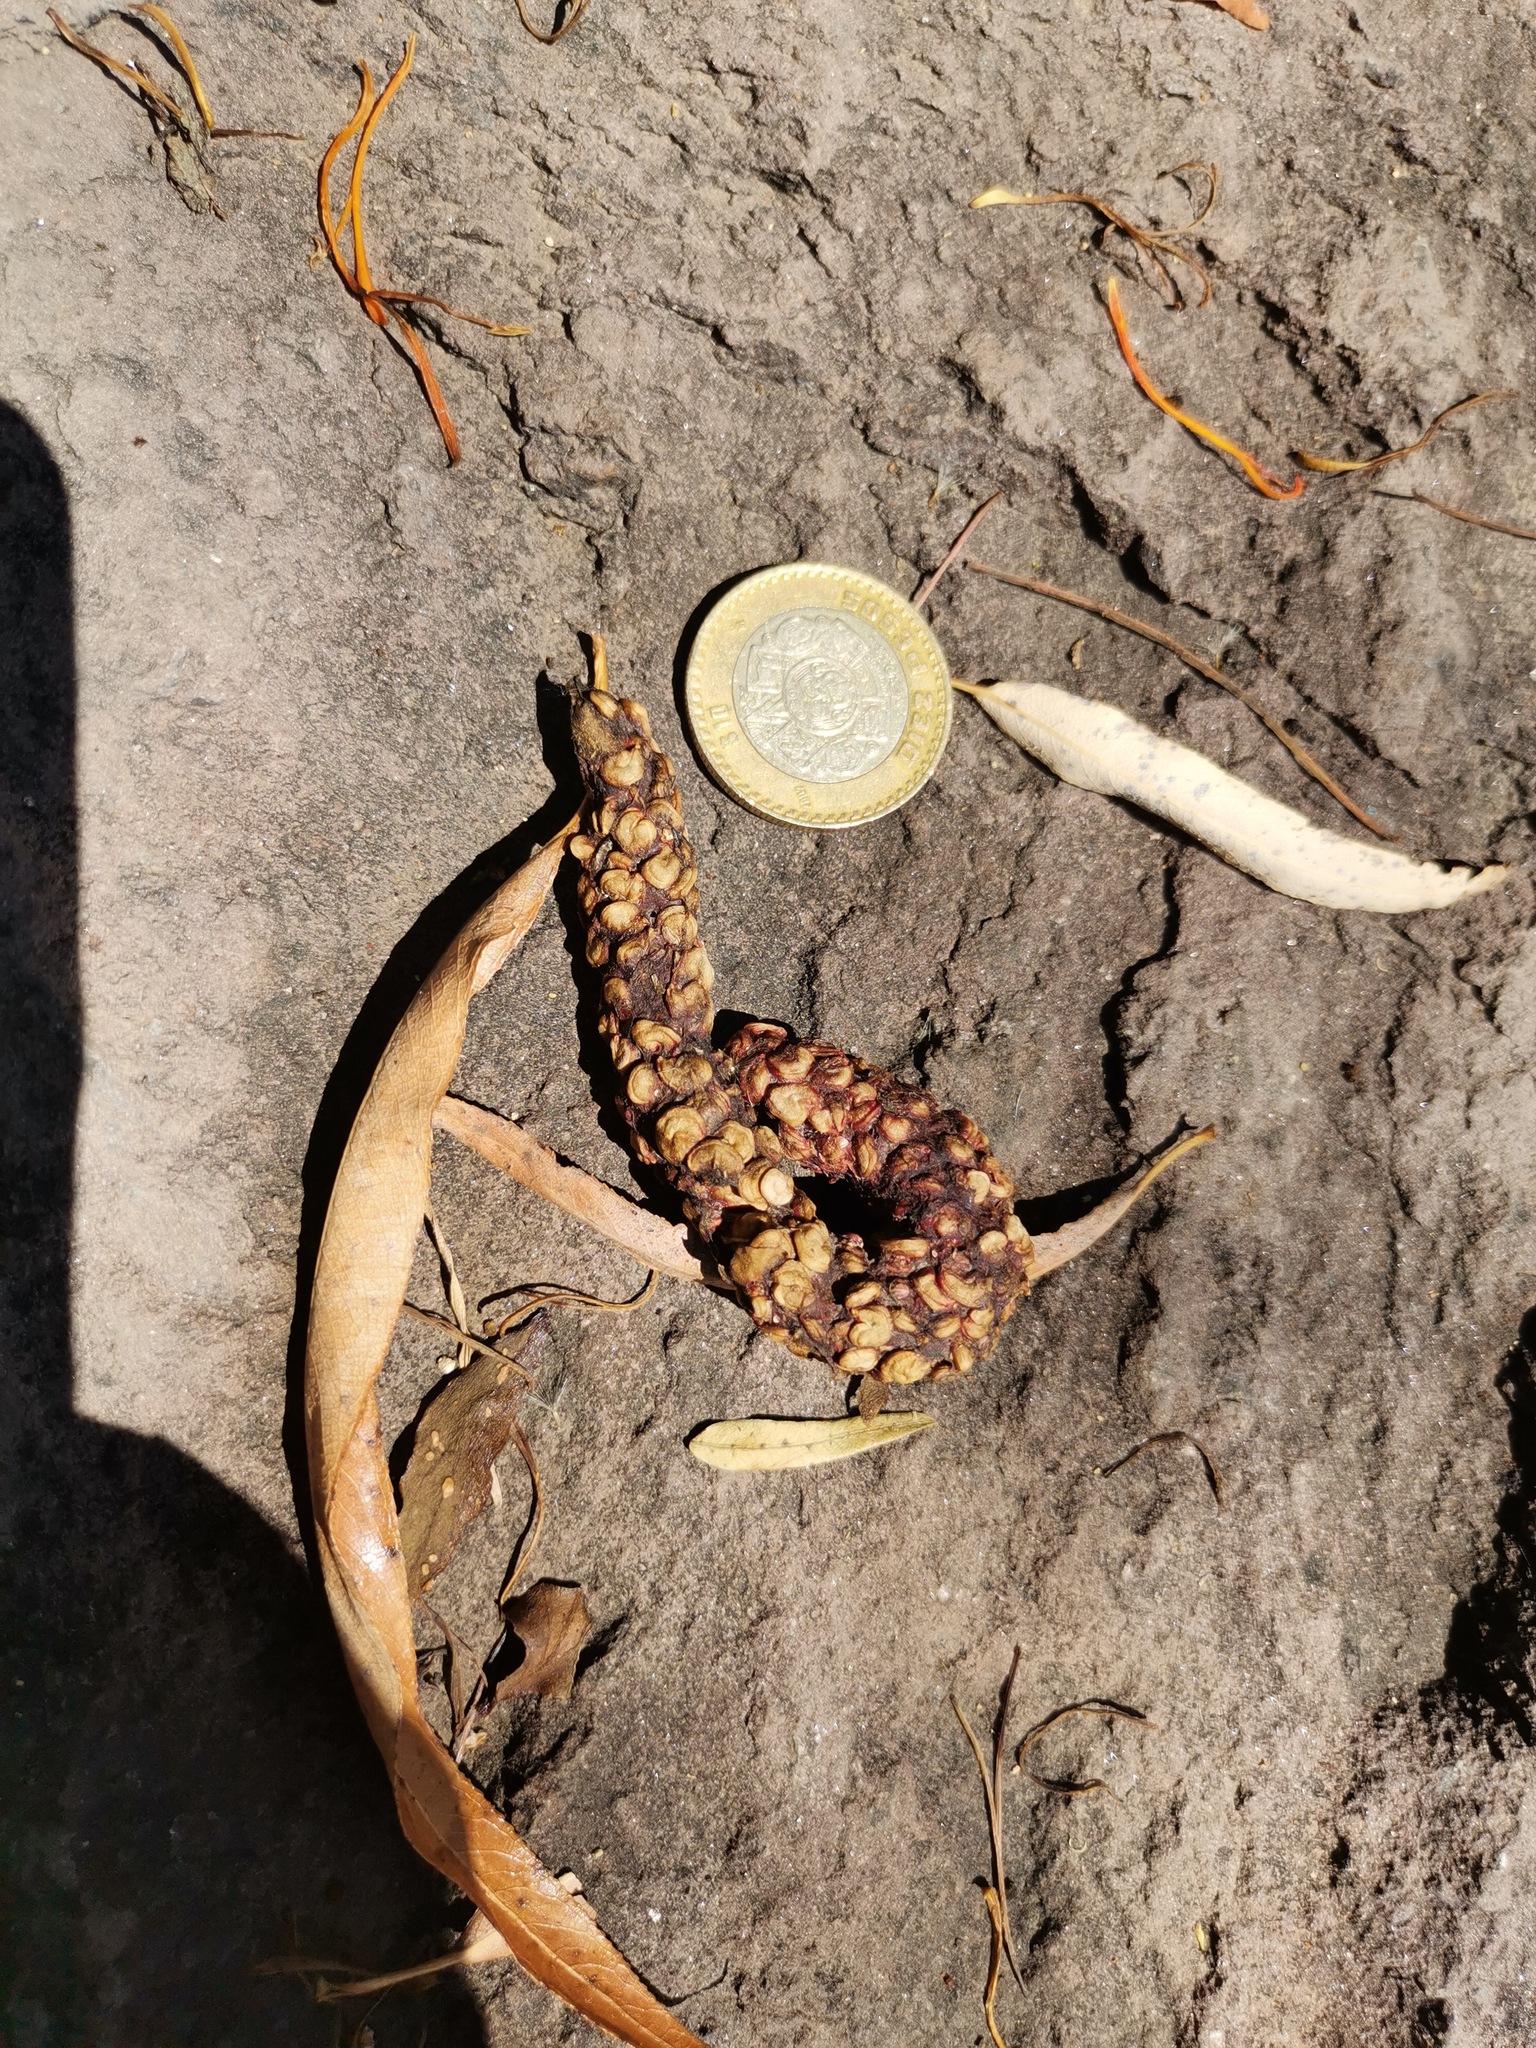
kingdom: Animalia
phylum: Chordata
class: Mammalia
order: Carnivora
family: Procyonidae
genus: Bassariscus
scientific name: Bassariscus astutus
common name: Ringtail
